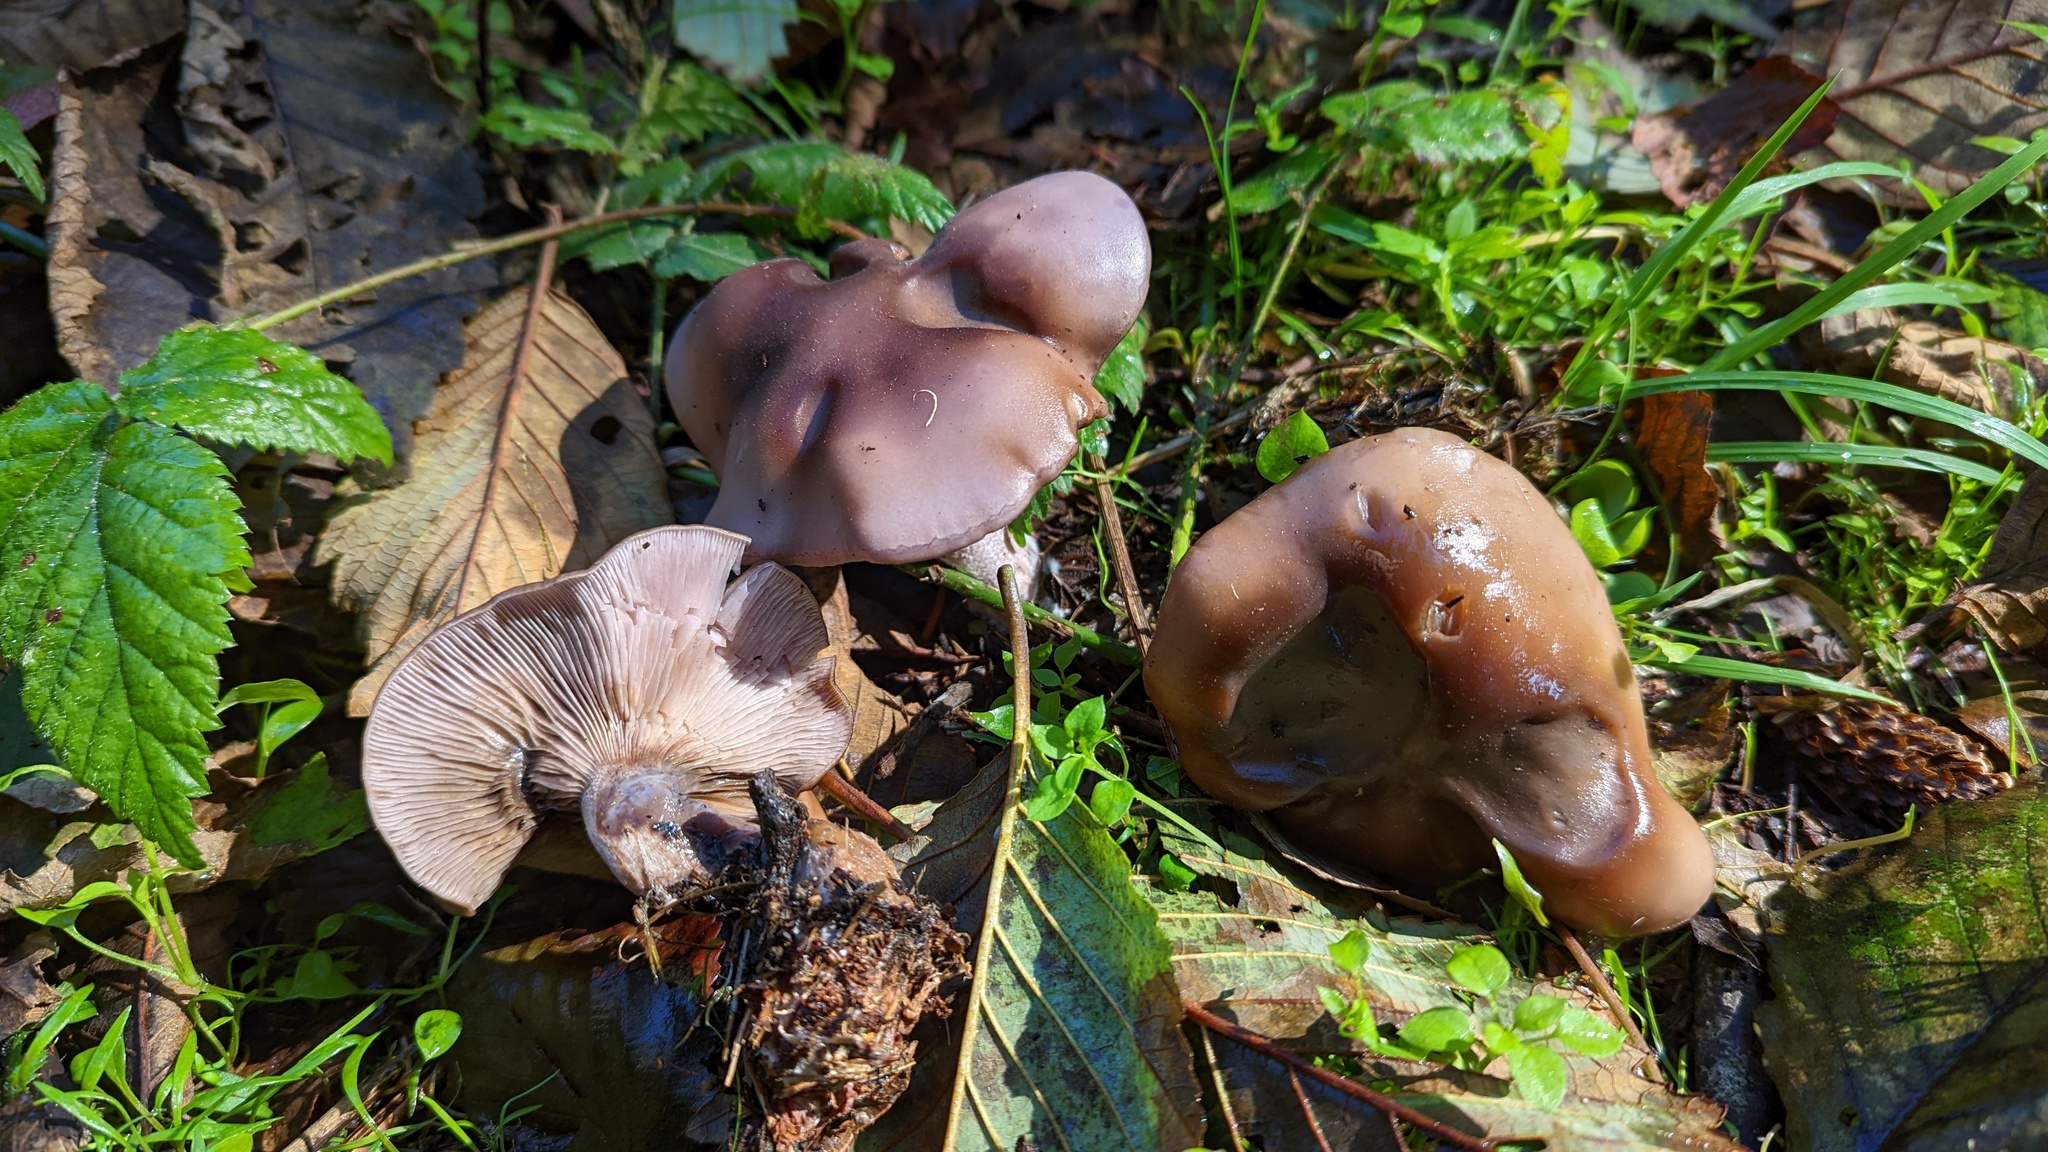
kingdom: Fungi
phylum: Basidiomycota
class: Agaricomycetes
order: Agaricales
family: Tricholomataceae
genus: Collybia
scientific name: Collybia
